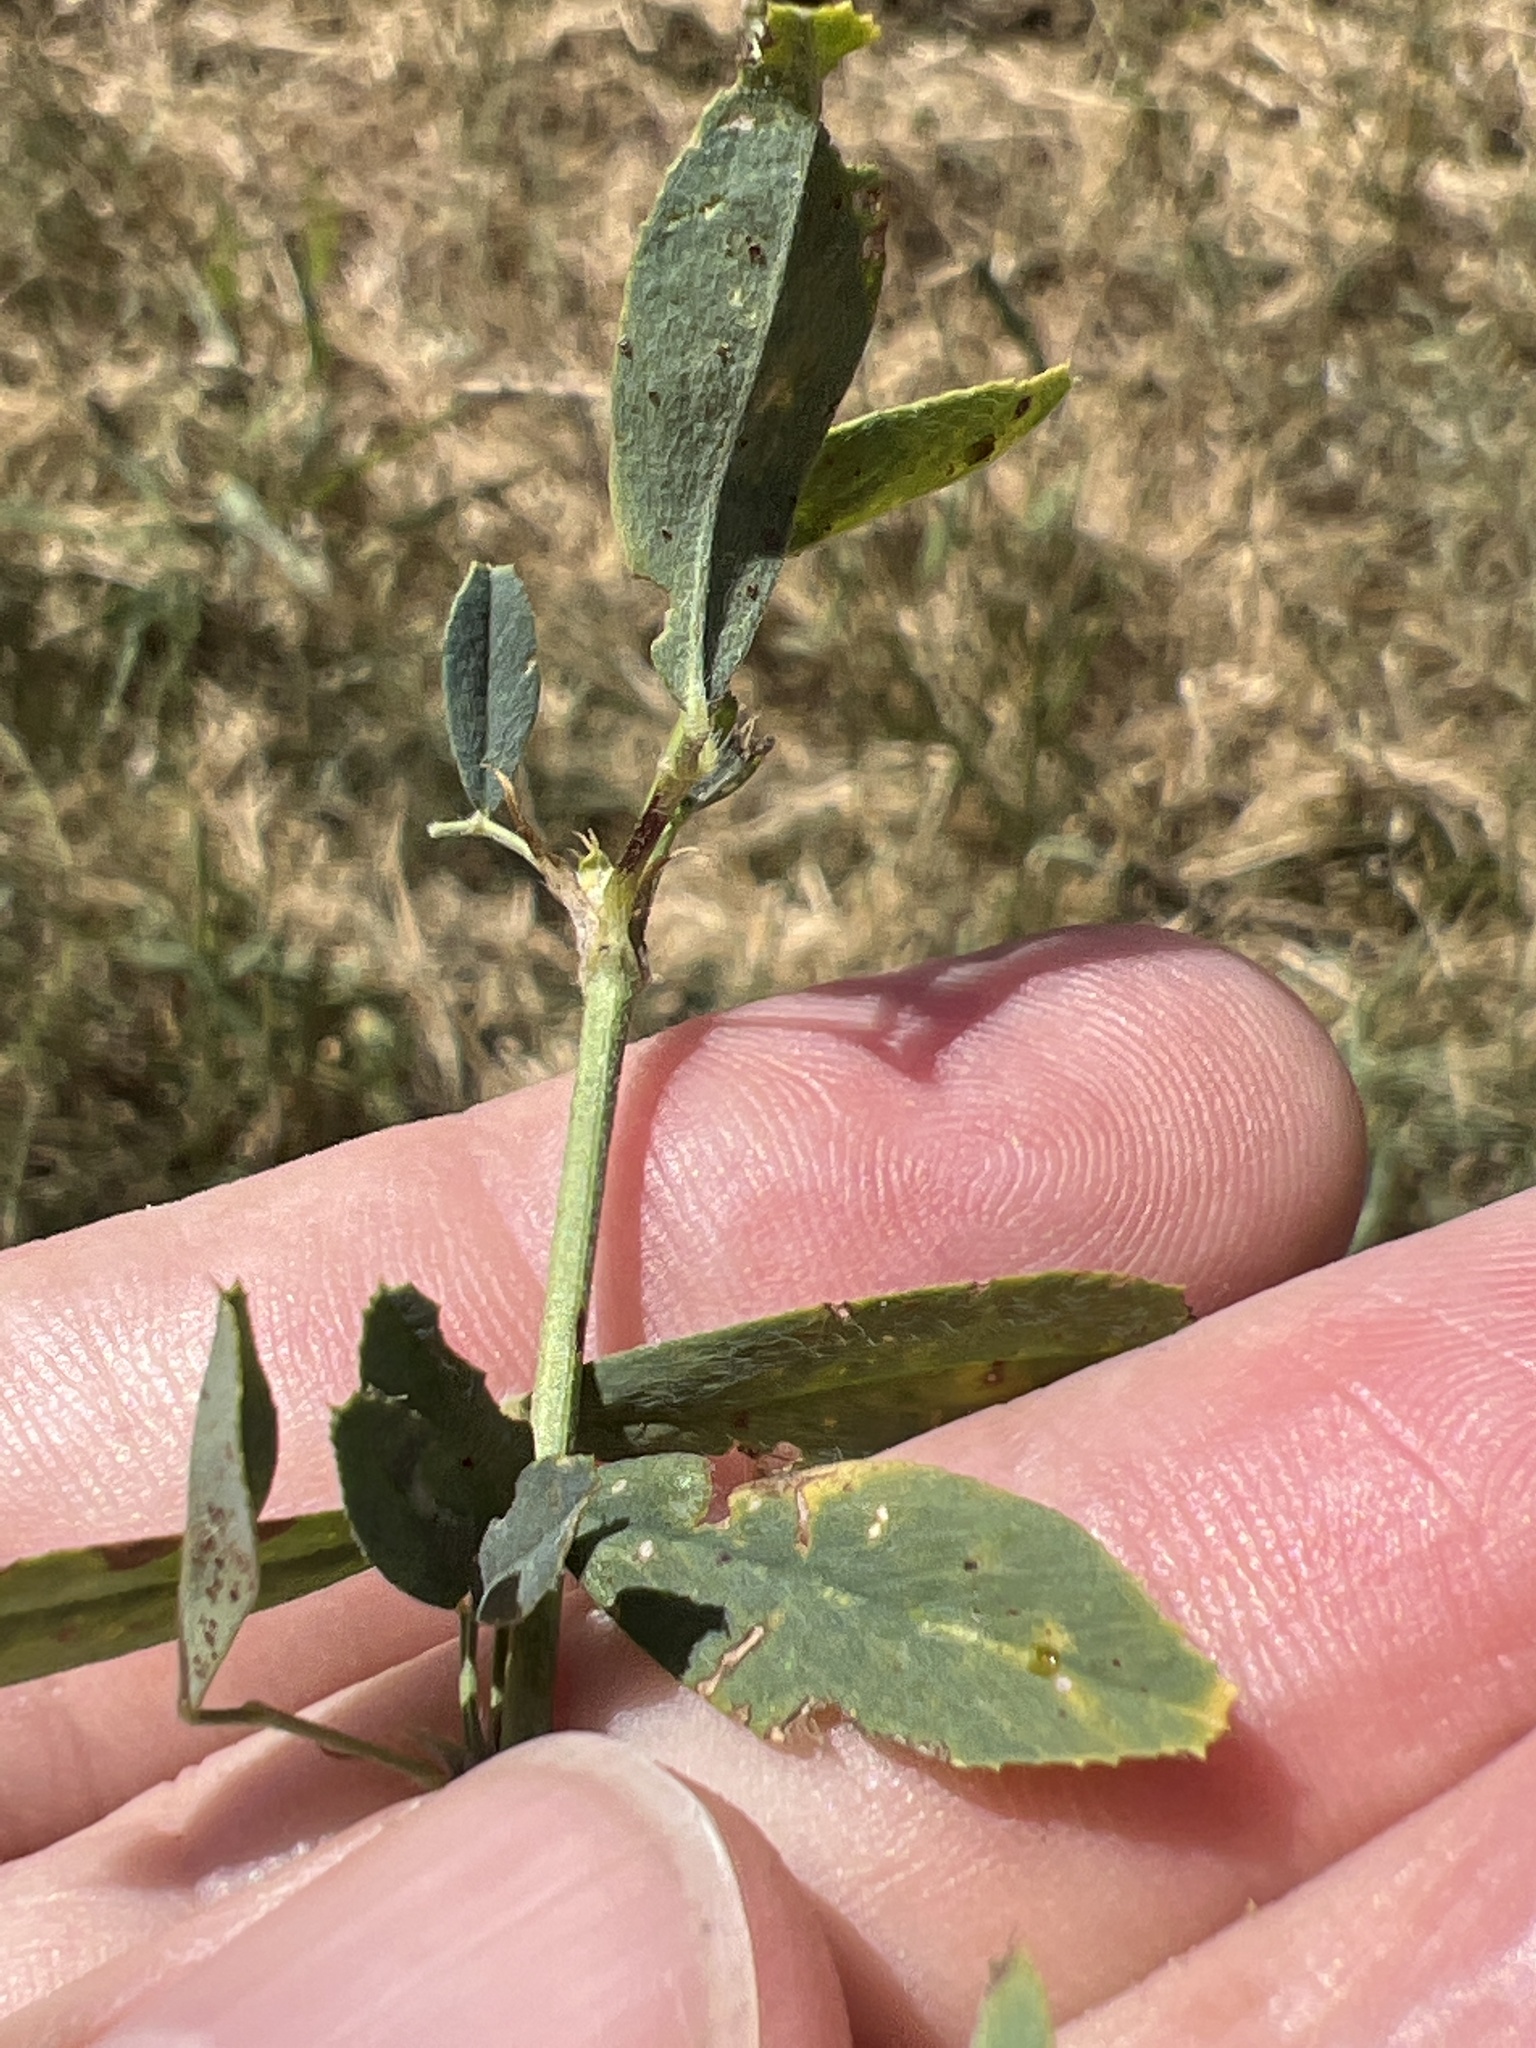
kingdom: Plantae
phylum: Tracheophyta
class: Magnoliopsida
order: Fabales
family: Fabaceae
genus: Medicago
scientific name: Medicago sativa
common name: Alfalfa
